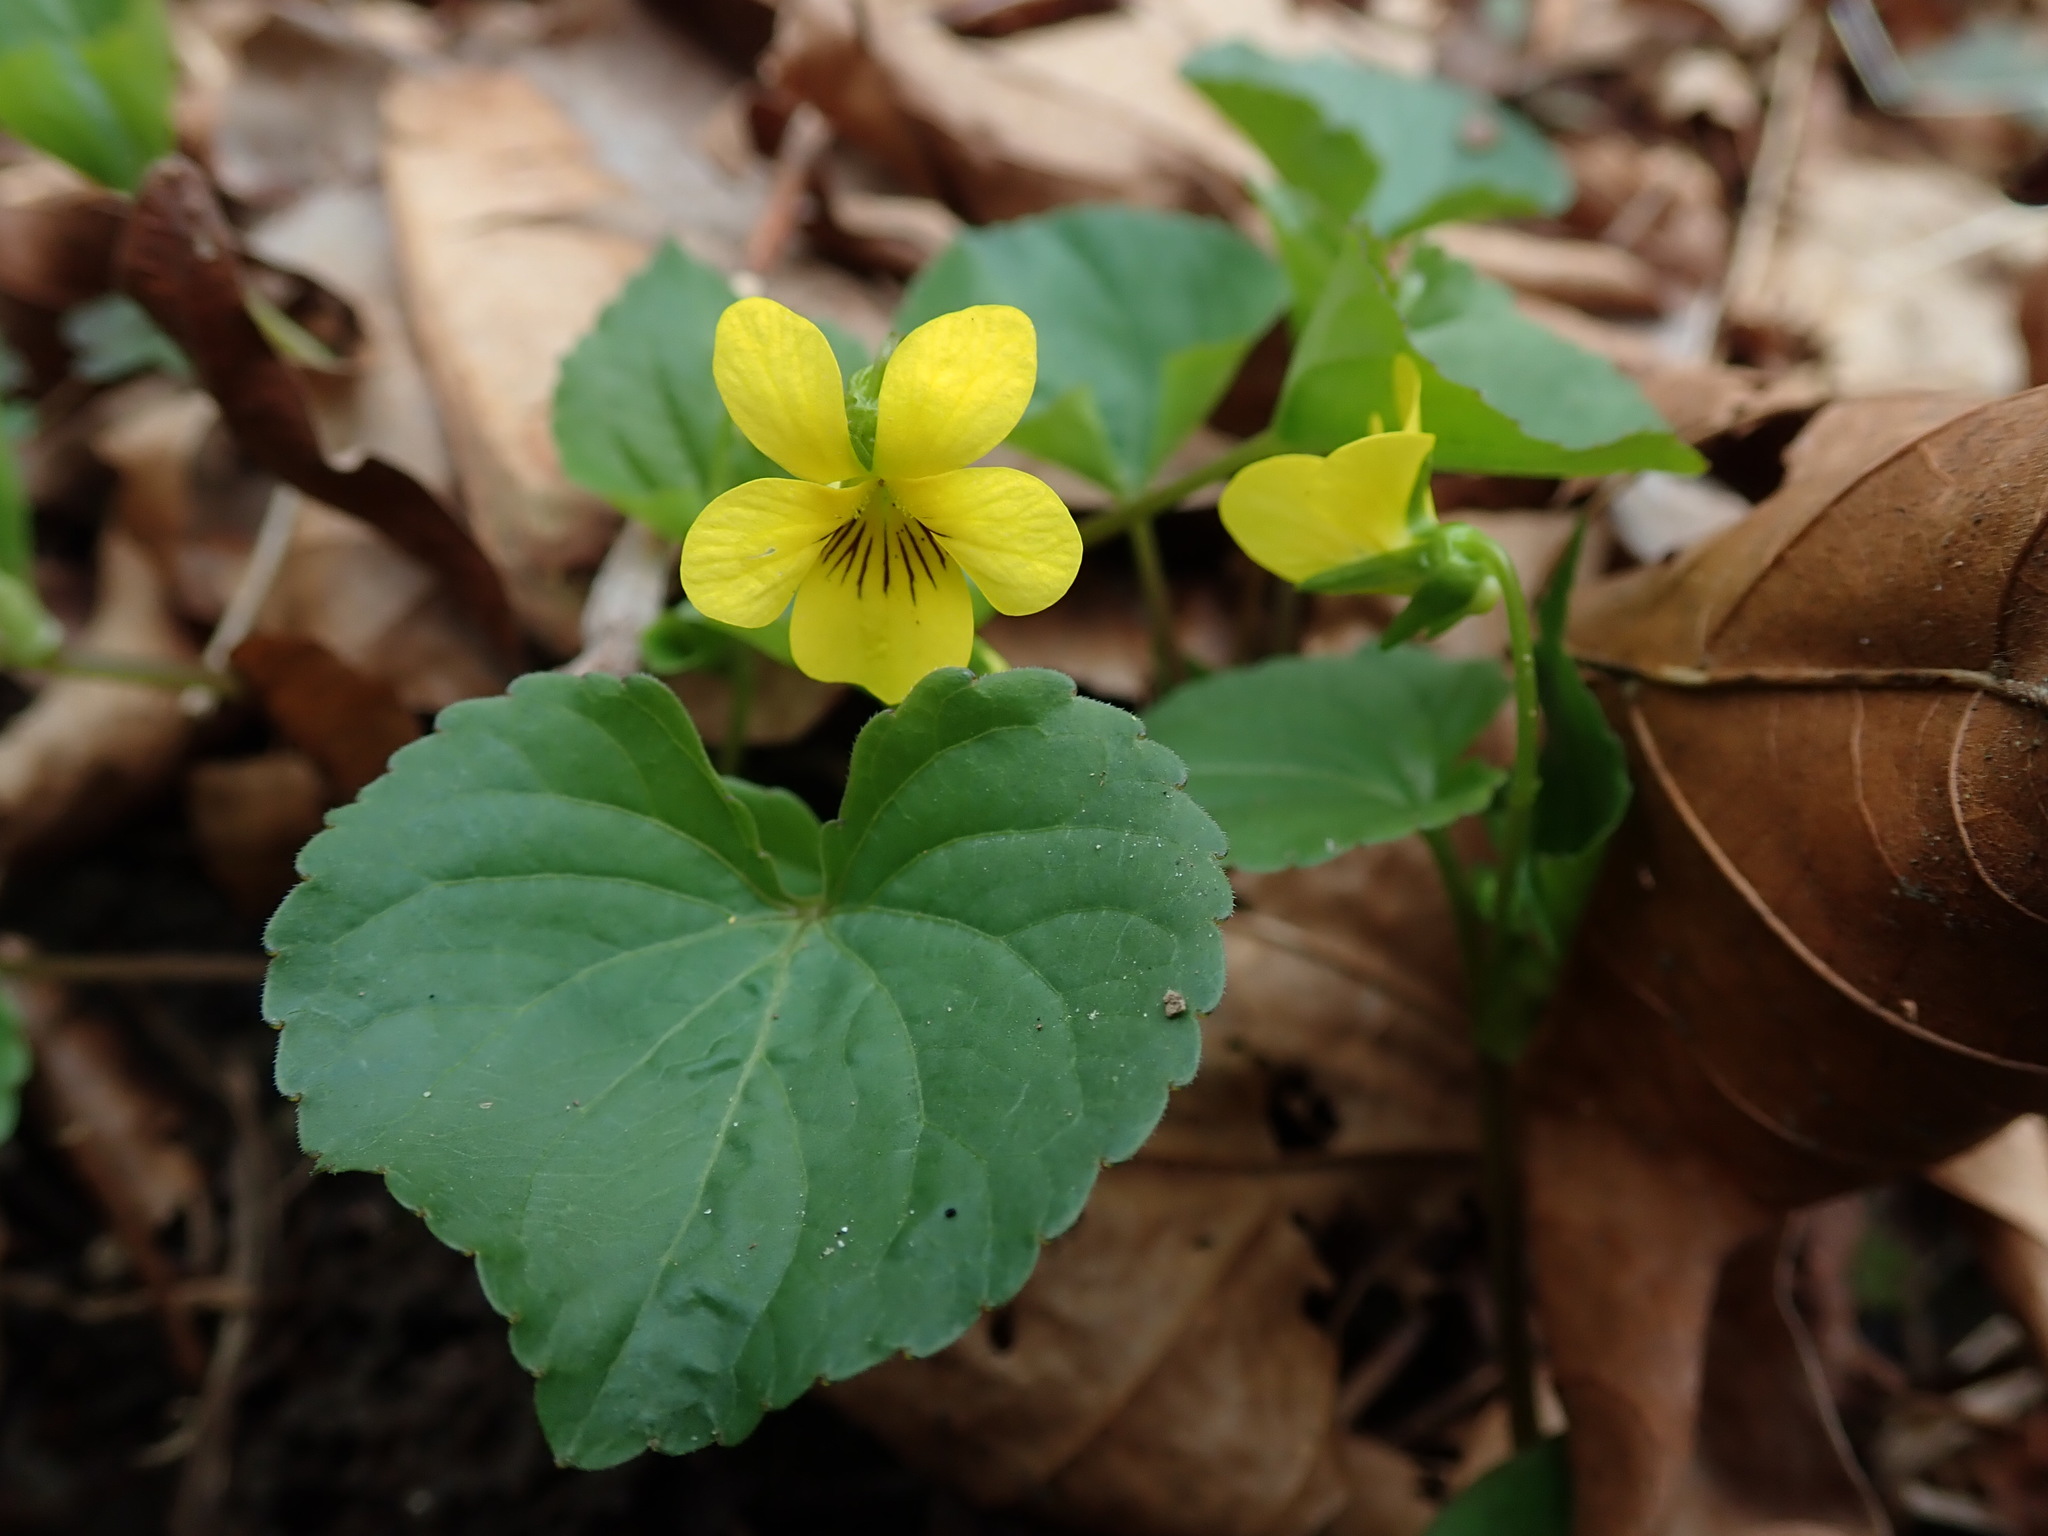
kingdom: Plantae
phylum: Tracheophyta
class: Magnoliopsida
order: Malpighiales
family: Violaceae
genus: Viola
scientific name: Viola glabella
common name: Stream violet
